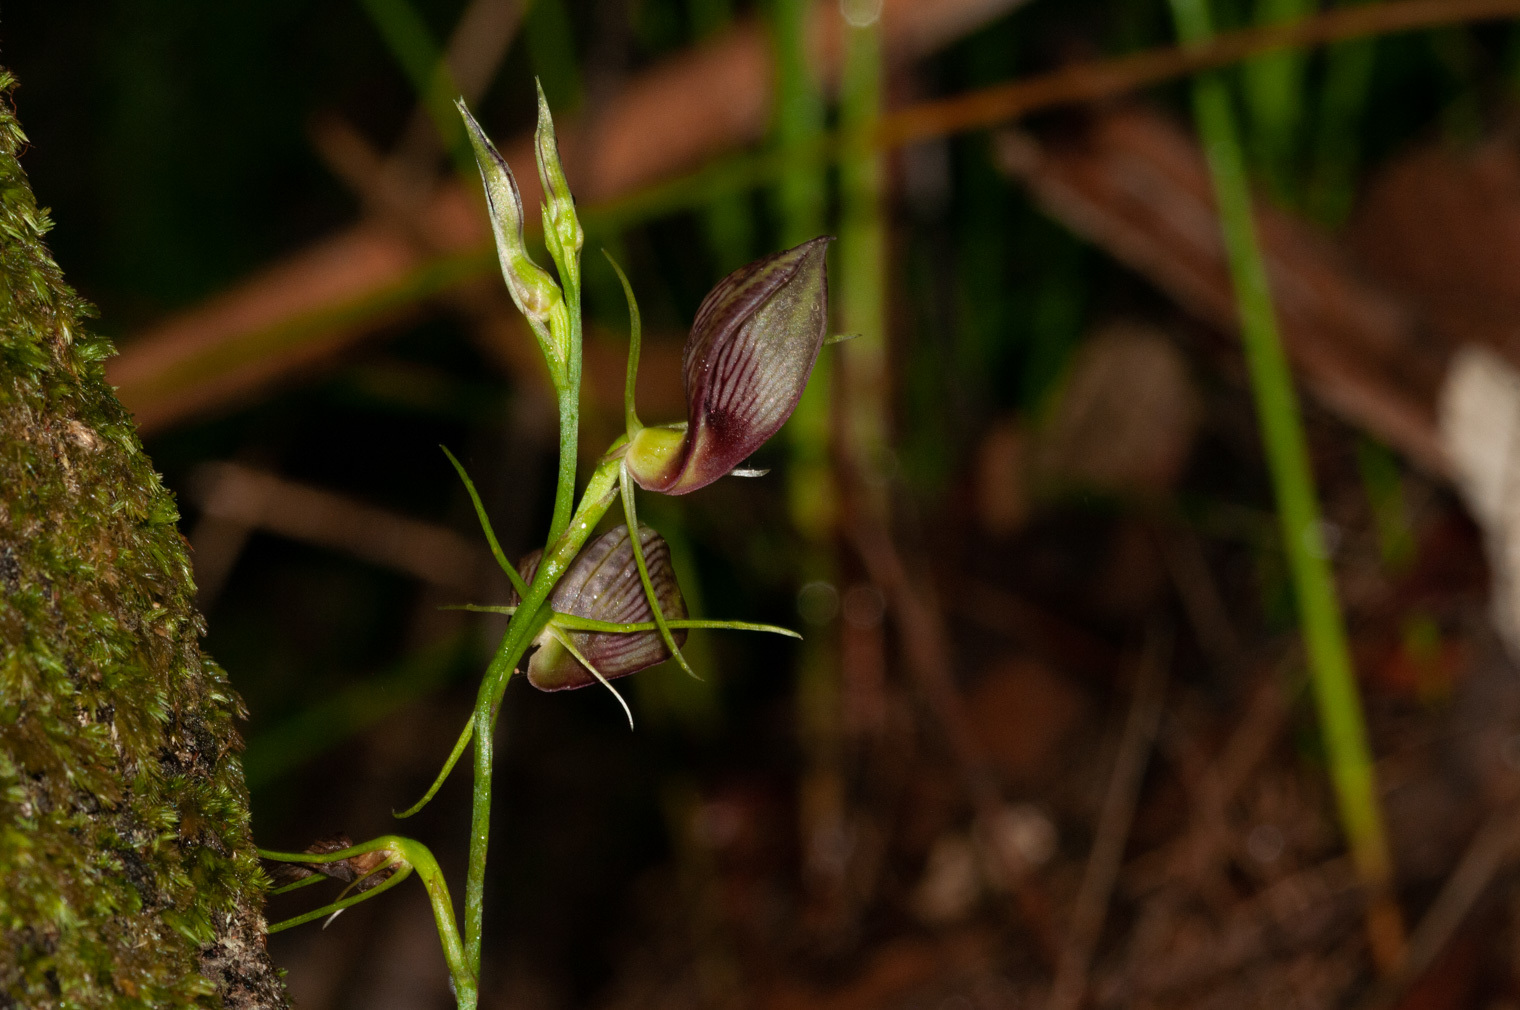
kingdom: Plantae
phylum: Tracheophyta
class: Liliopsida
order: Asparagales
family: Orchidaceae
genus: Cryptostylis
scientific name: Cryptostylis erecta
